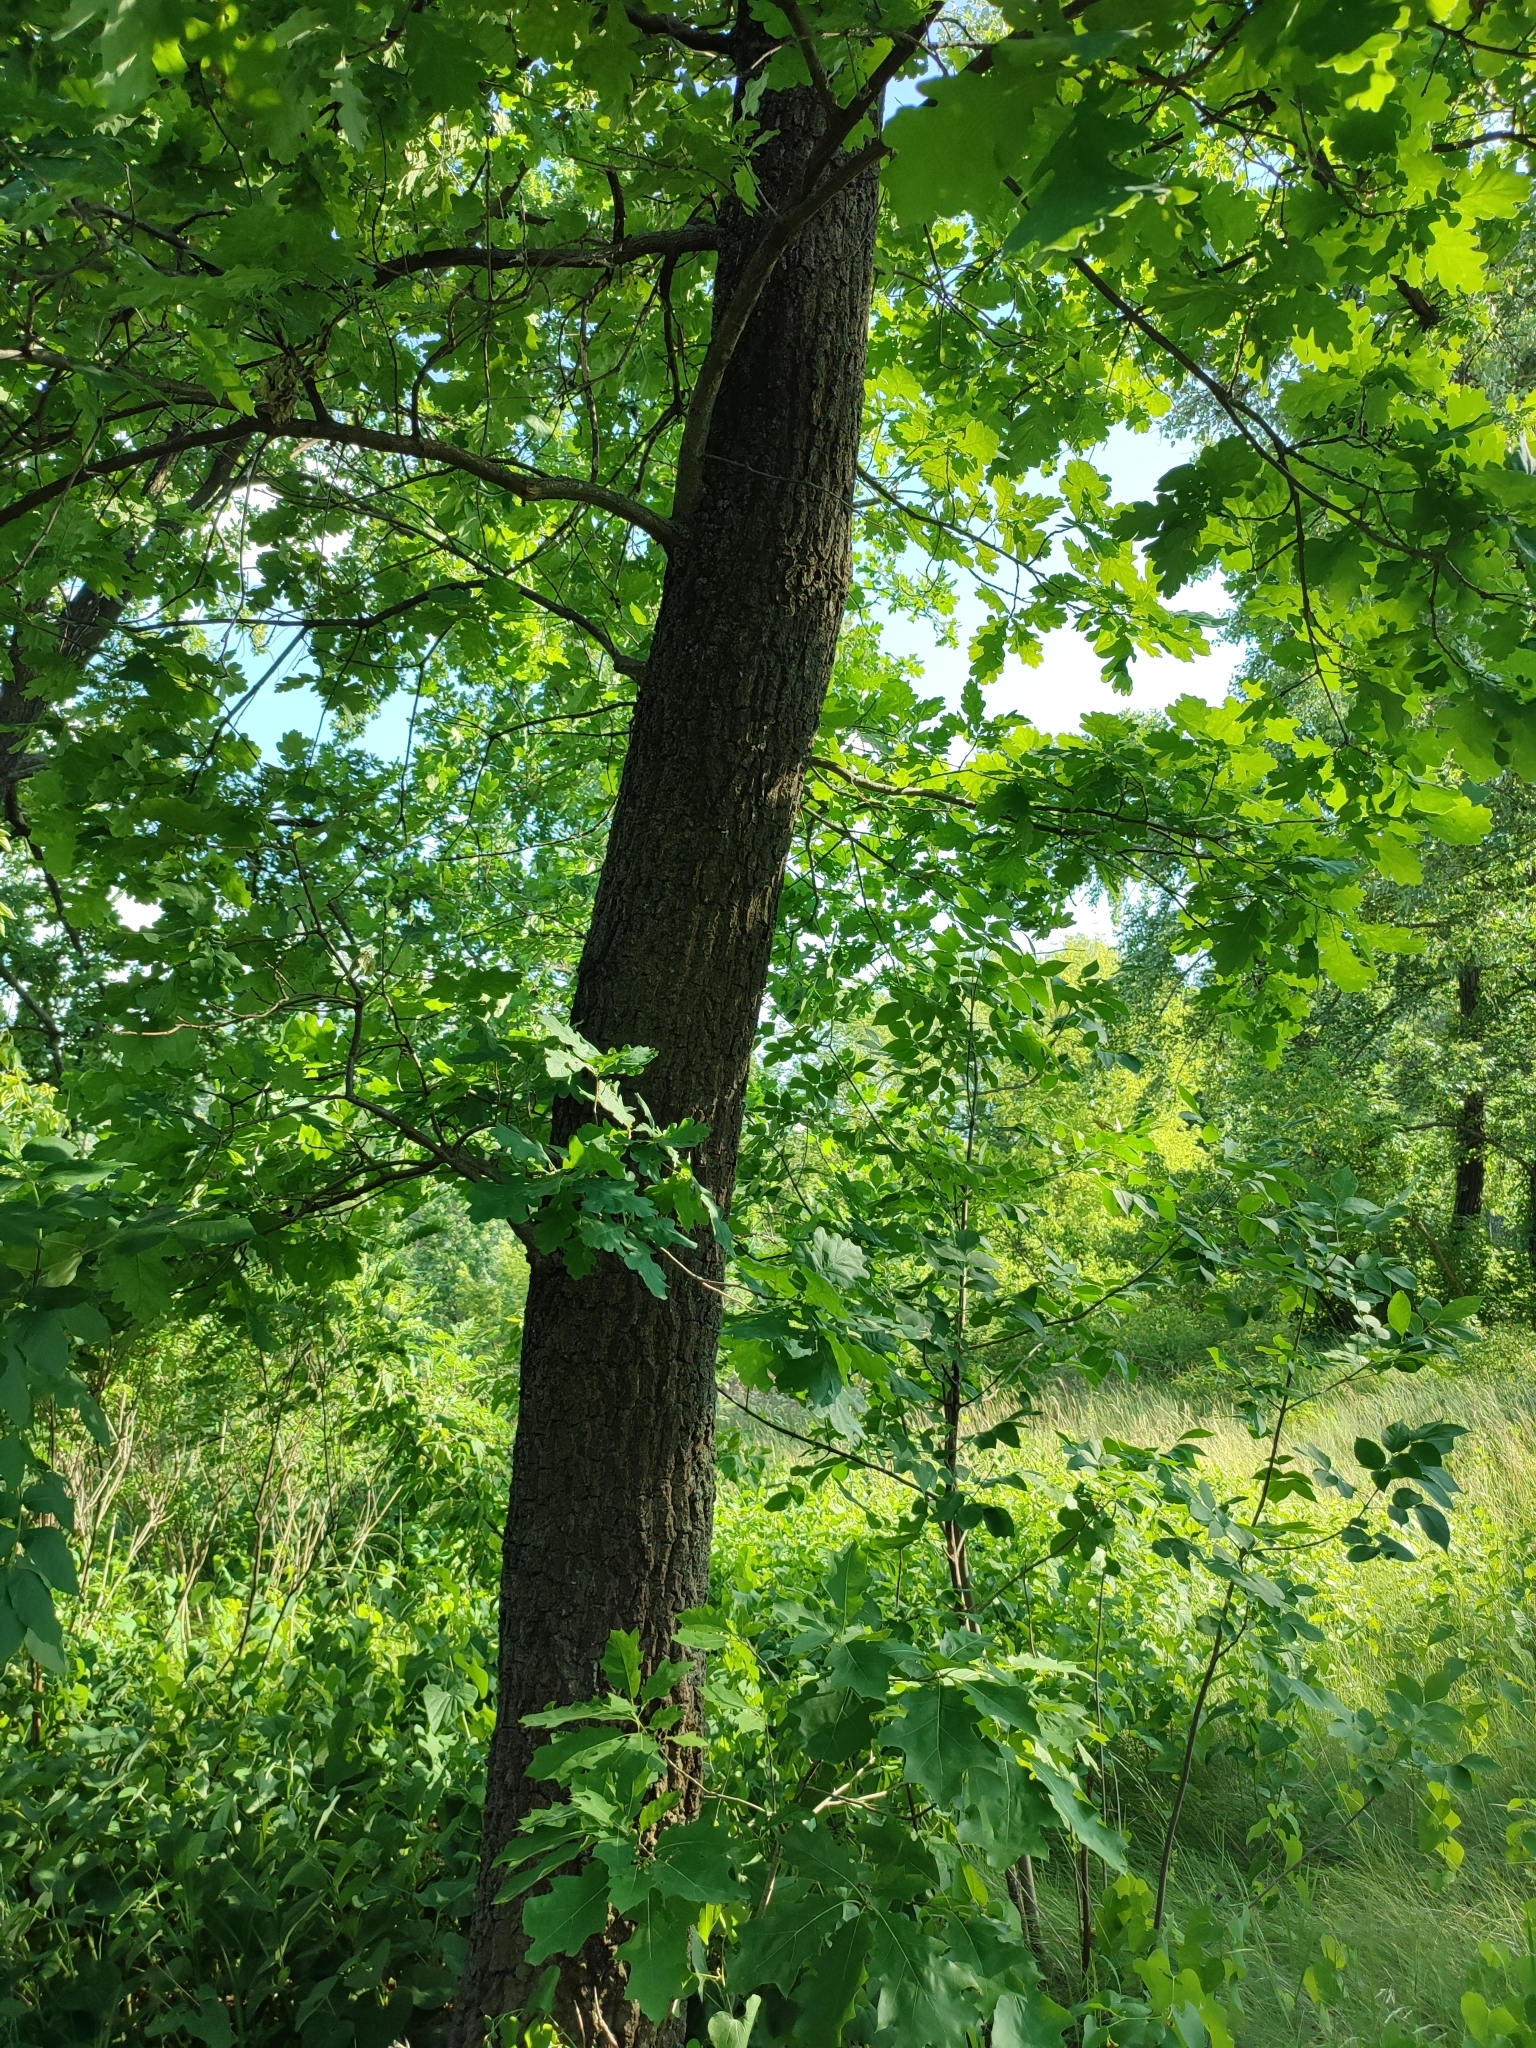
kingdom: Plantae
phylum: Tracheophyta
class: Magnoliopsida
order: Fagales
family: Fagaceae
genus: Quercus
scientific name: Quercus robur
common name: Pedunculate oak
